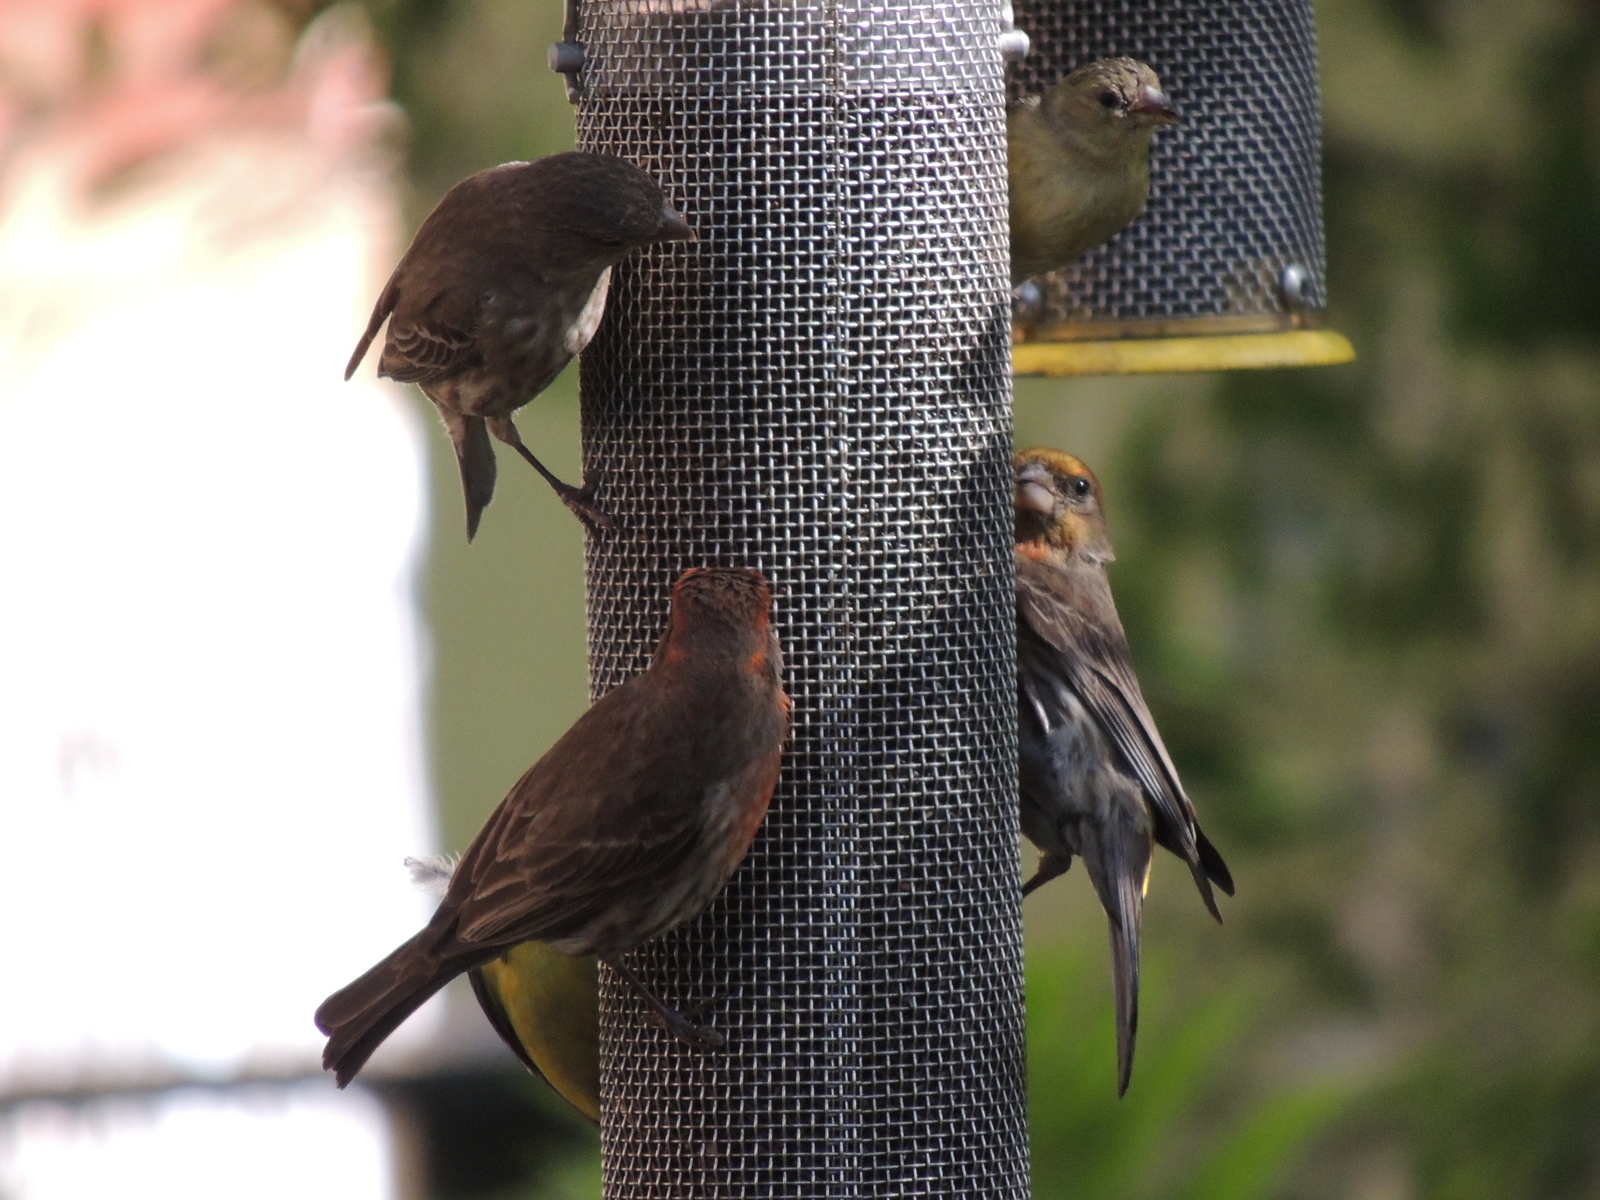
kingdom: Animalia
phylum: Chordata
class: Aves
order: Passeriformes
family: Fringillidae
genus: Haemorhous
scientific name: Haemorhous mexicanus
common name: House finch
